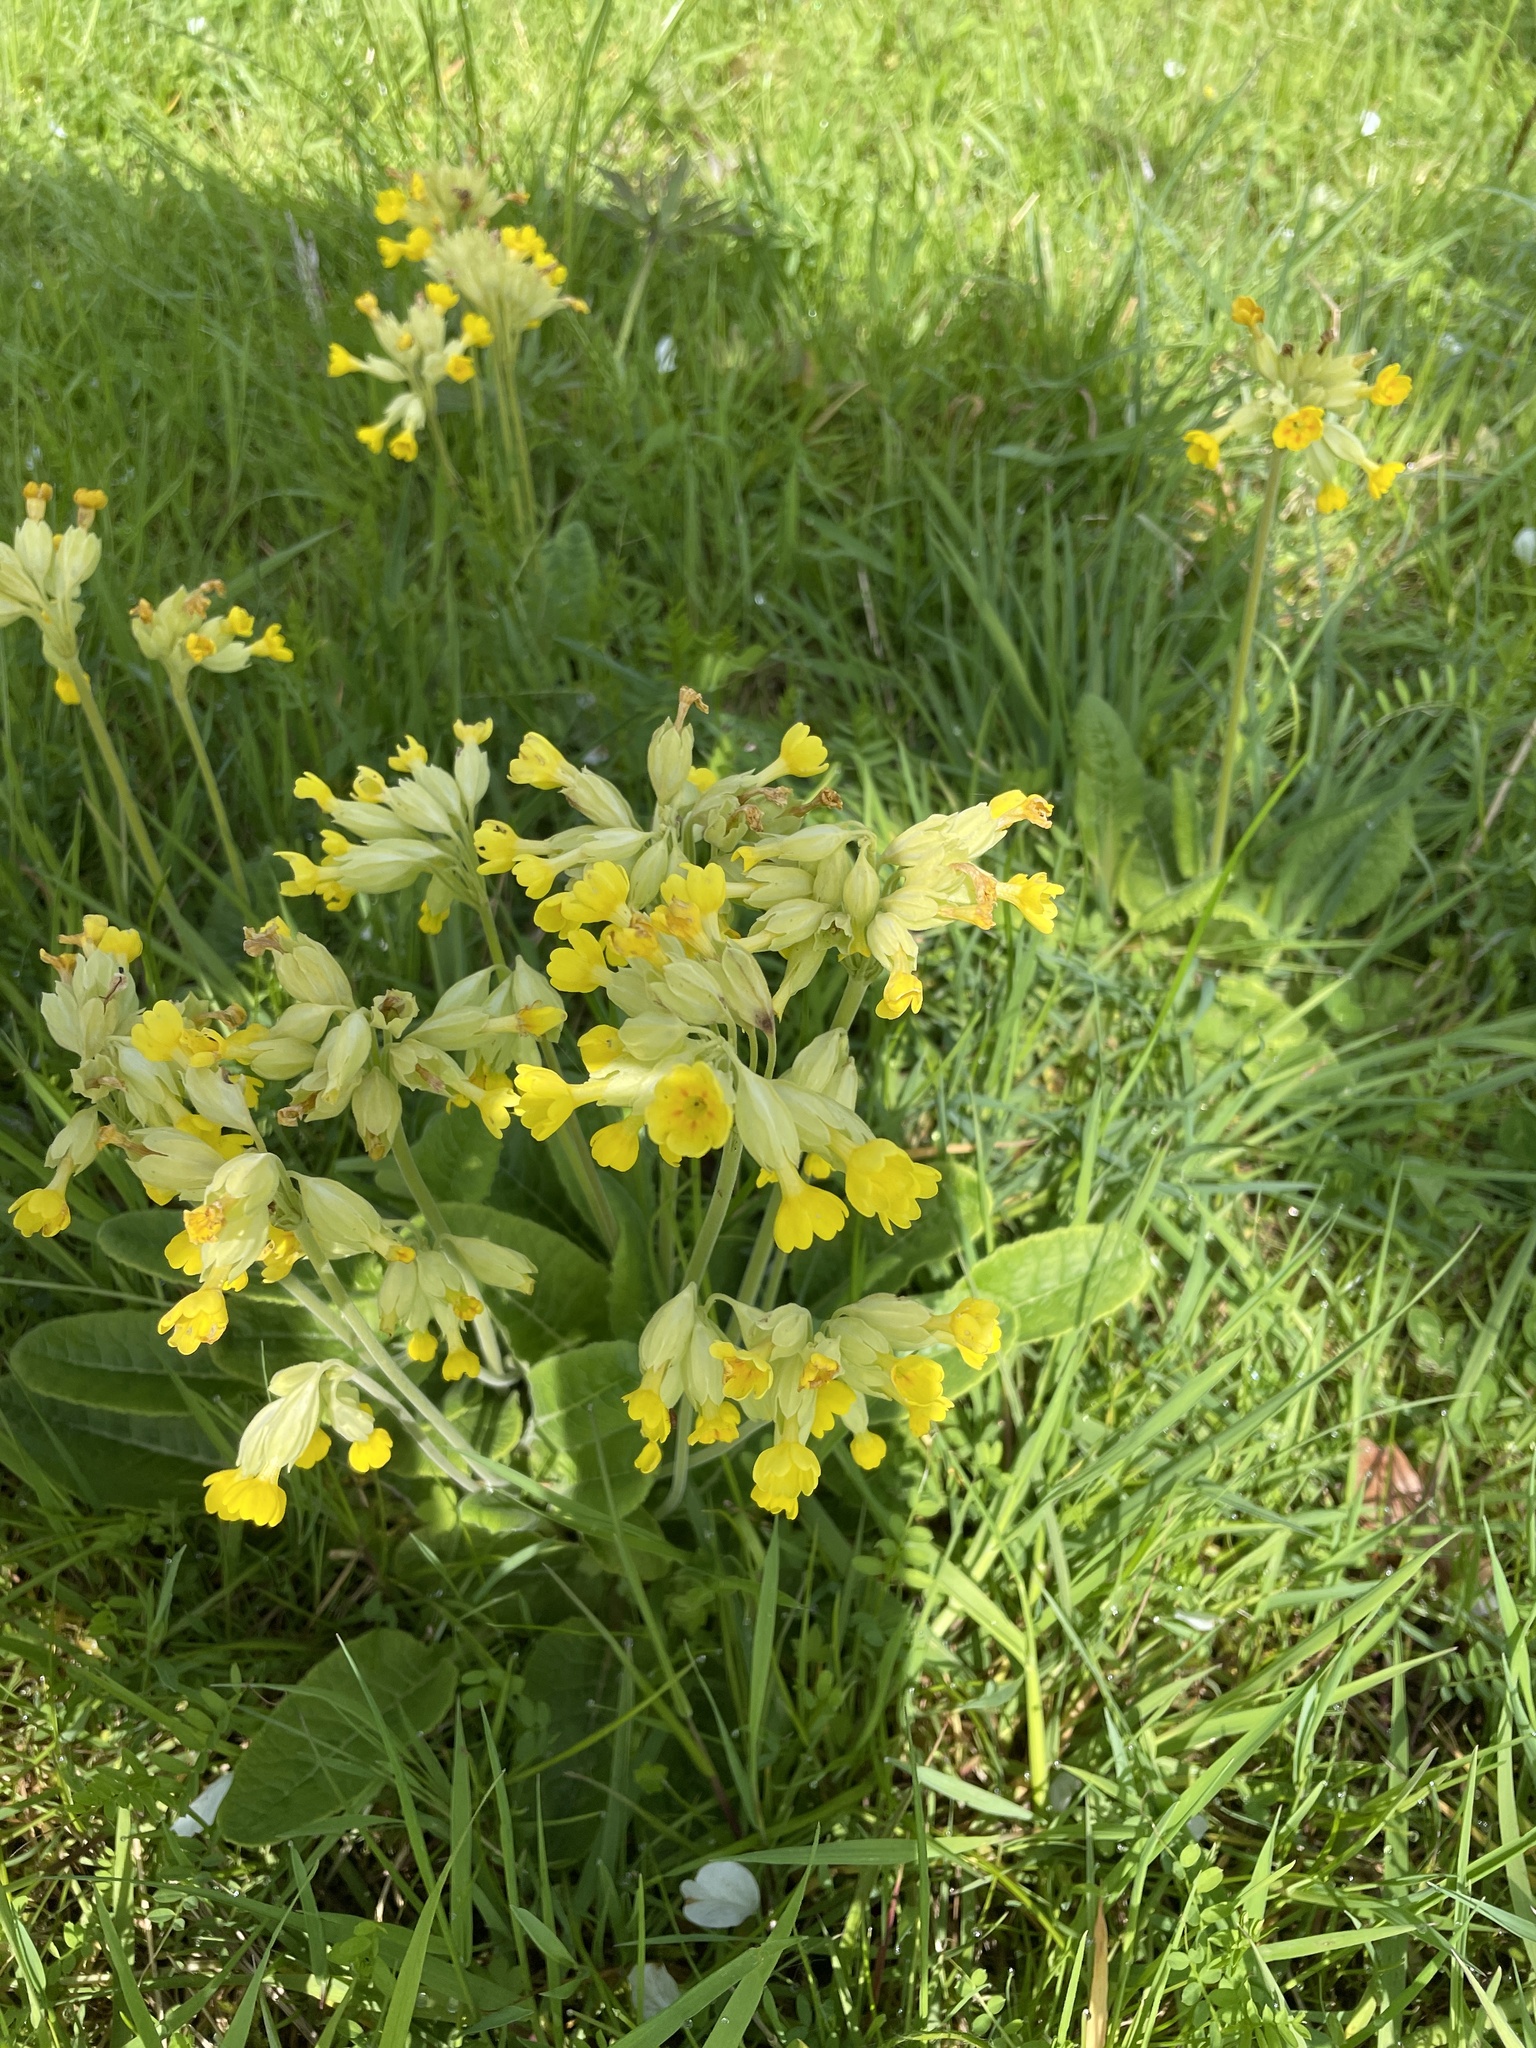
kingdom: Plantae
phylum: Tracheophyta
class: Magnoliopsida
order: Ericales
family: Primulaceae
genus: Primula
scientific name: Primula veris
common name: Cowslip
